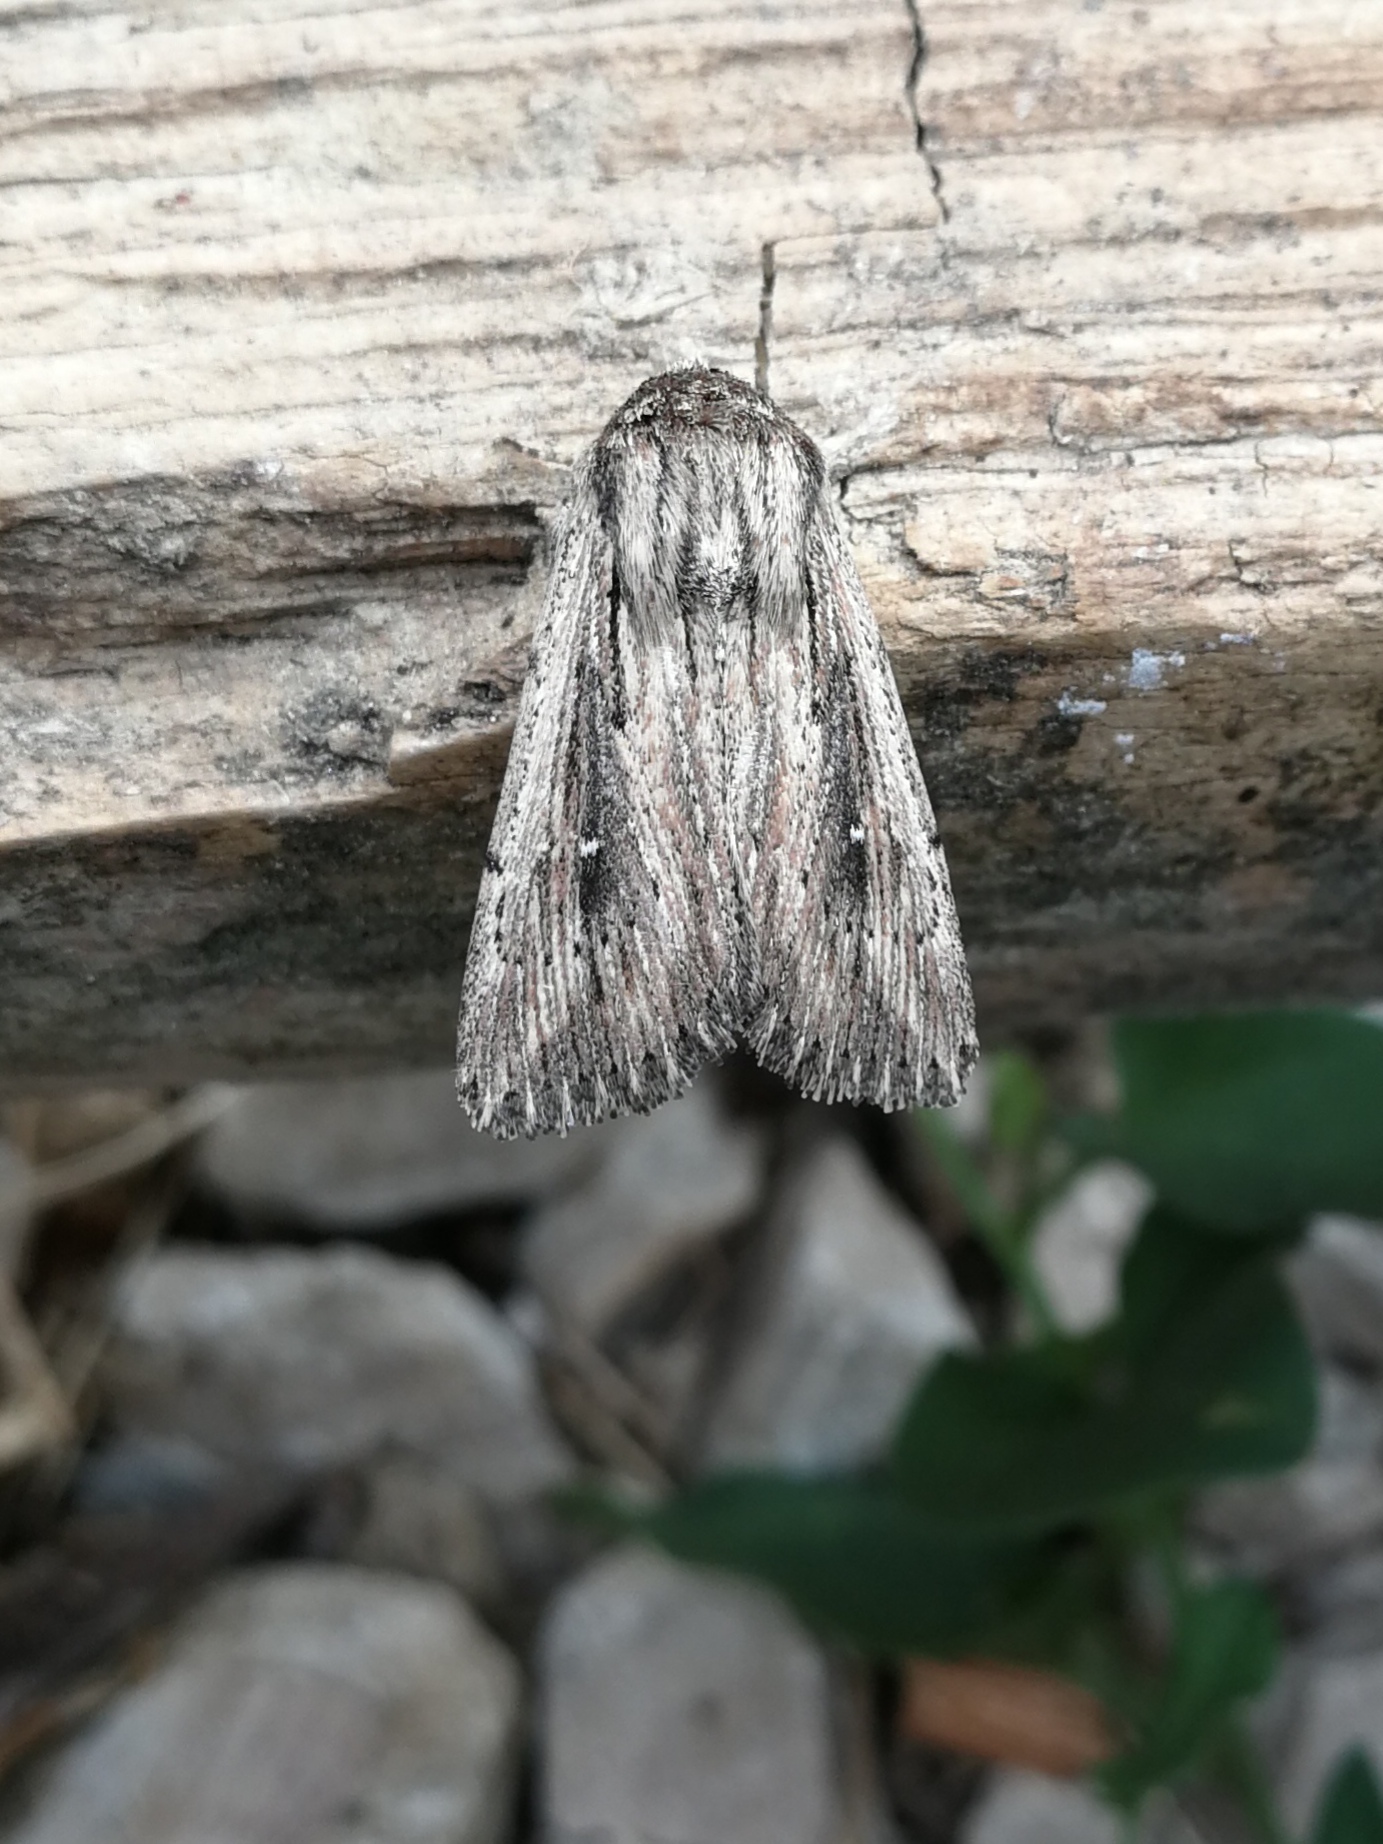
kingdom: Animalia
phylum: Arthropoda
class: Insecta
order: Lepidoptera
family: Noctuidae
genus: Leucania
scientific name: Leucania putrescens
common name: Devonshire wainscot
